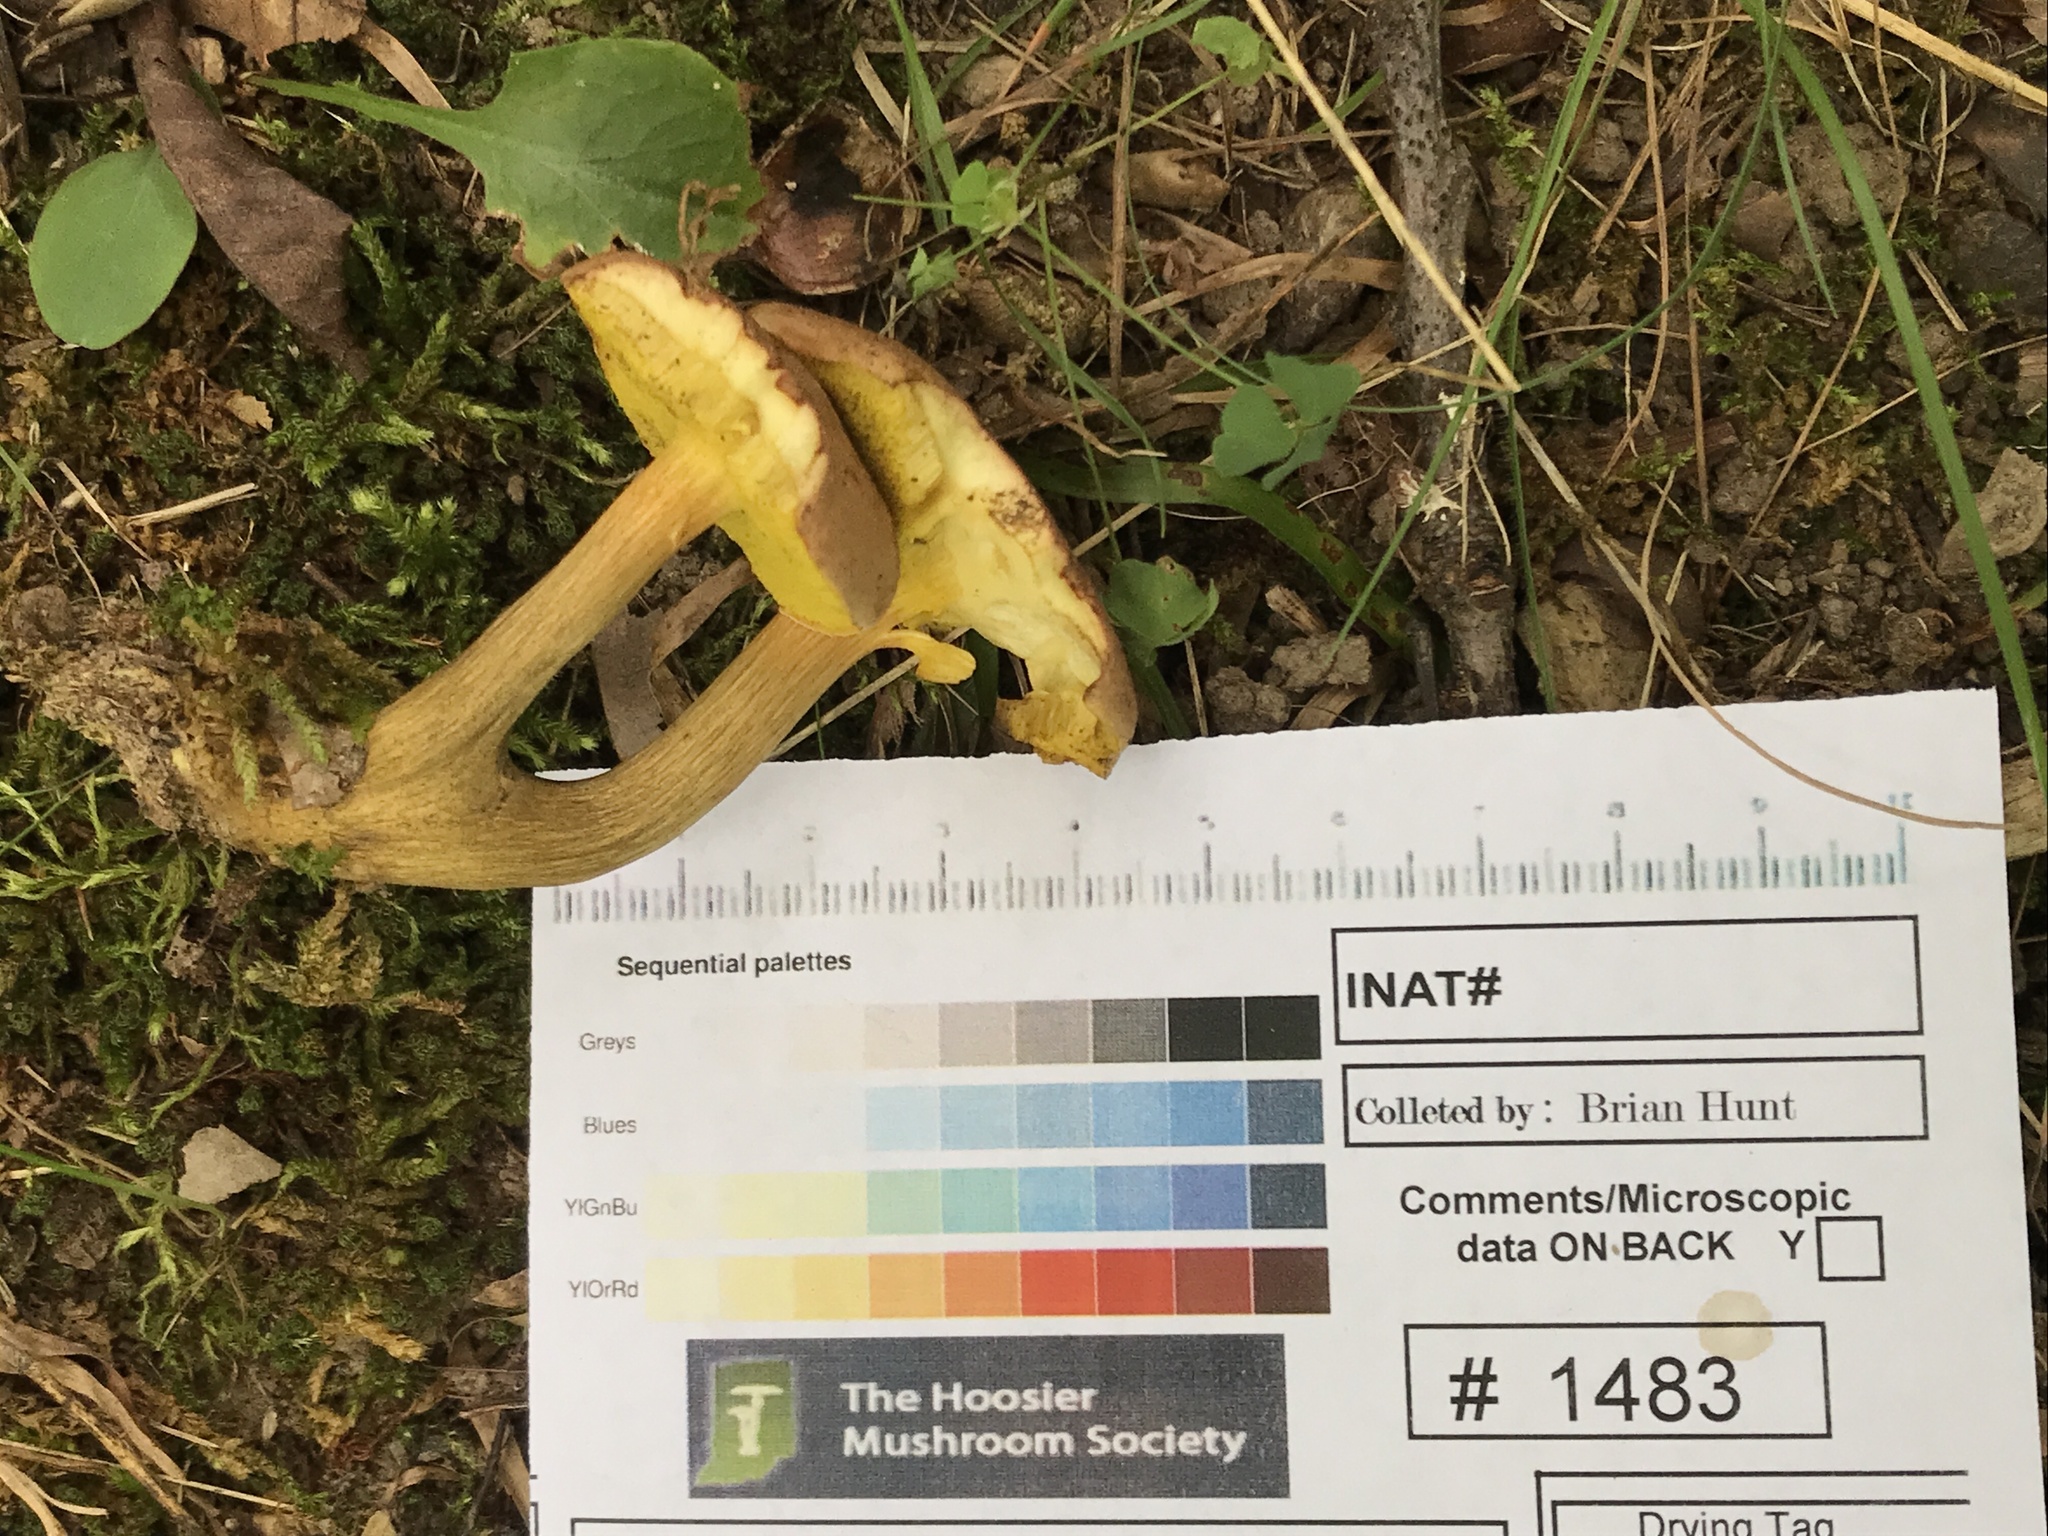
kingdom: Fungi
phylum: Basidiomycota
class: Agaricomycetes
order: Boletales
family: Boletaceae
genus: Aureoboletus
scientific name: Aureoboletus innixus
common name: Clustered brown bolete
